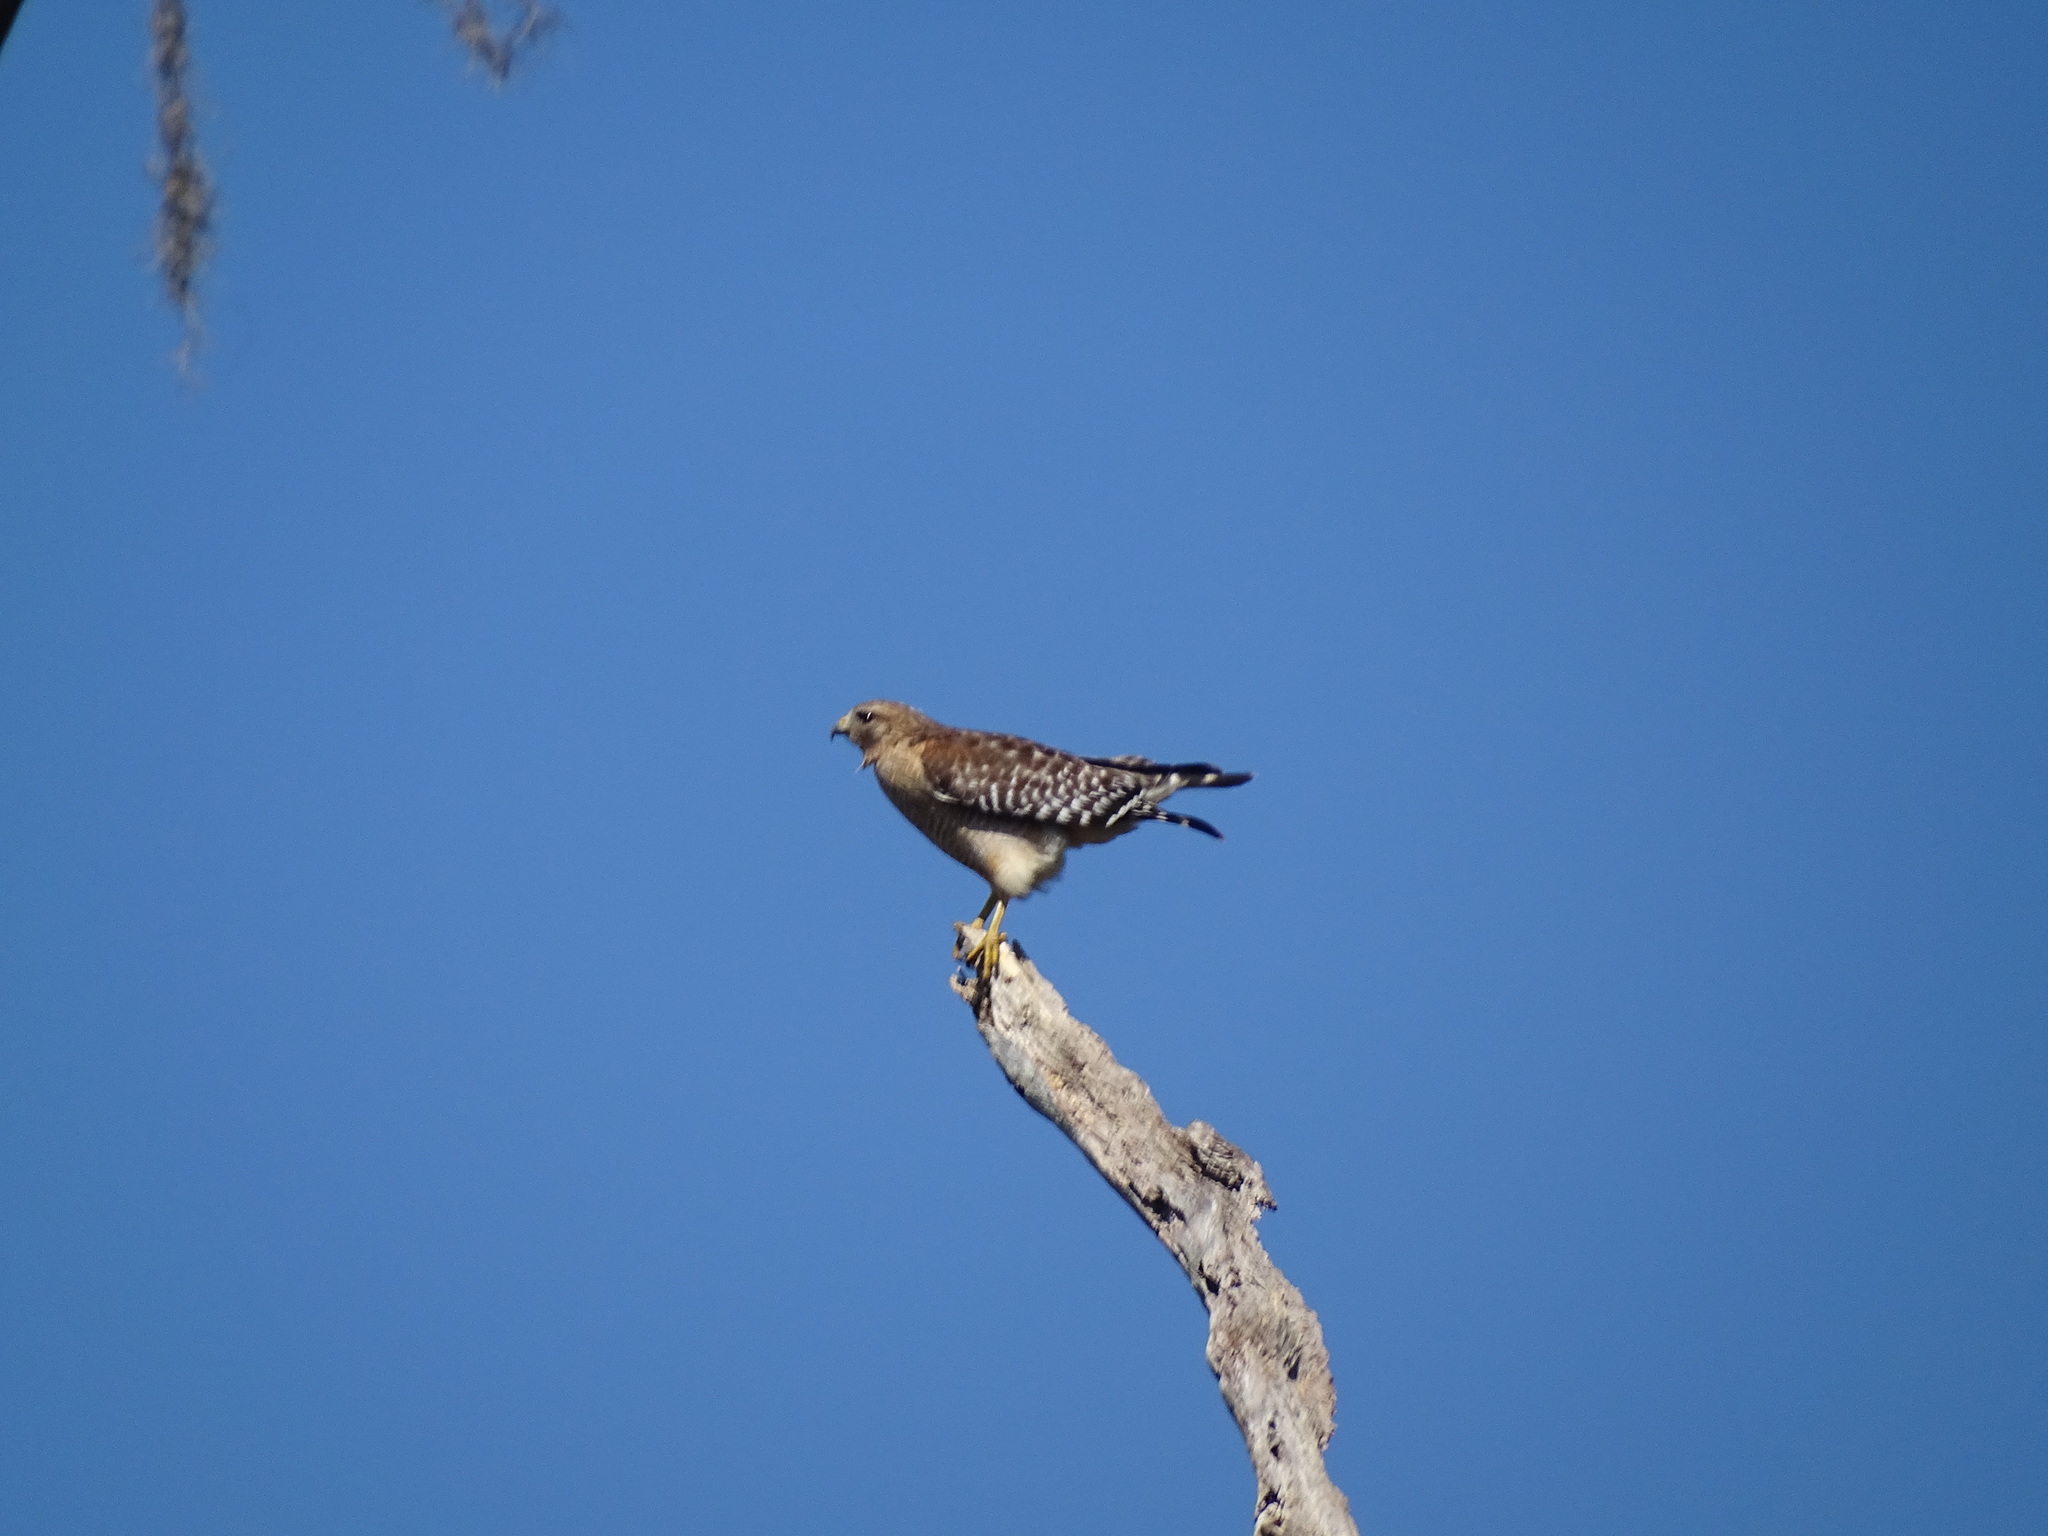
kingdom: Animalia
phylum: Chordata
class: Aves
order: Accipitriformes
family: Accipitridae
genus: Buteo
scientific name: Buteo lineatus
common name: Red-shouldered hawk
